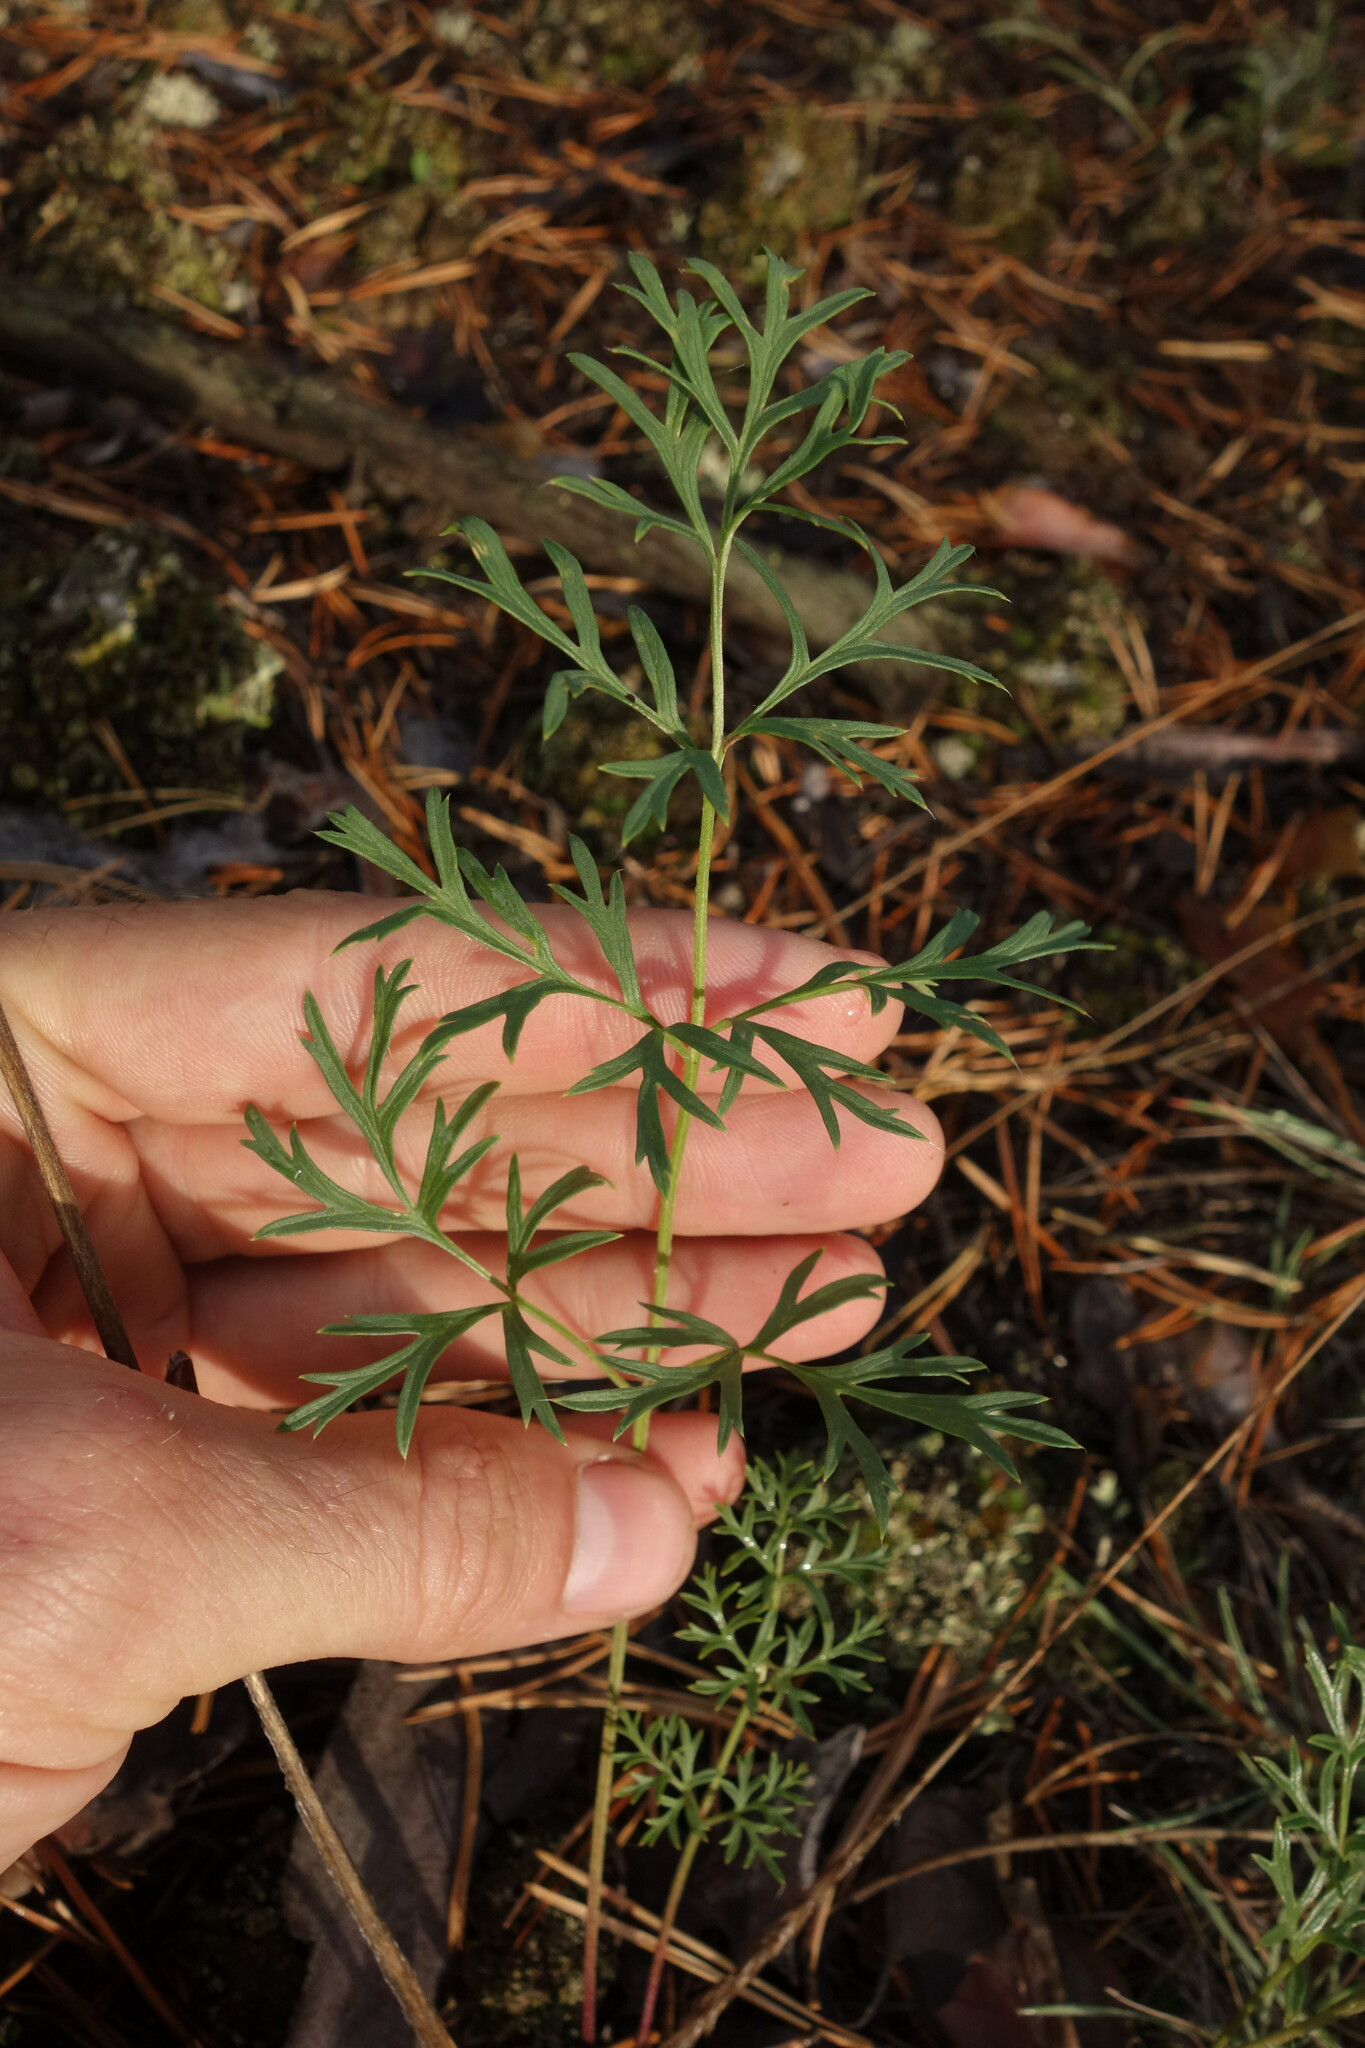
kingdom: Plantae
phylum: Tracheophyta
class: Magnoliopsida
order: Ranunculales
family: Ranunculaceae
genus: Pulsatilla
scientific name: Pulsatilla turczaninovii
